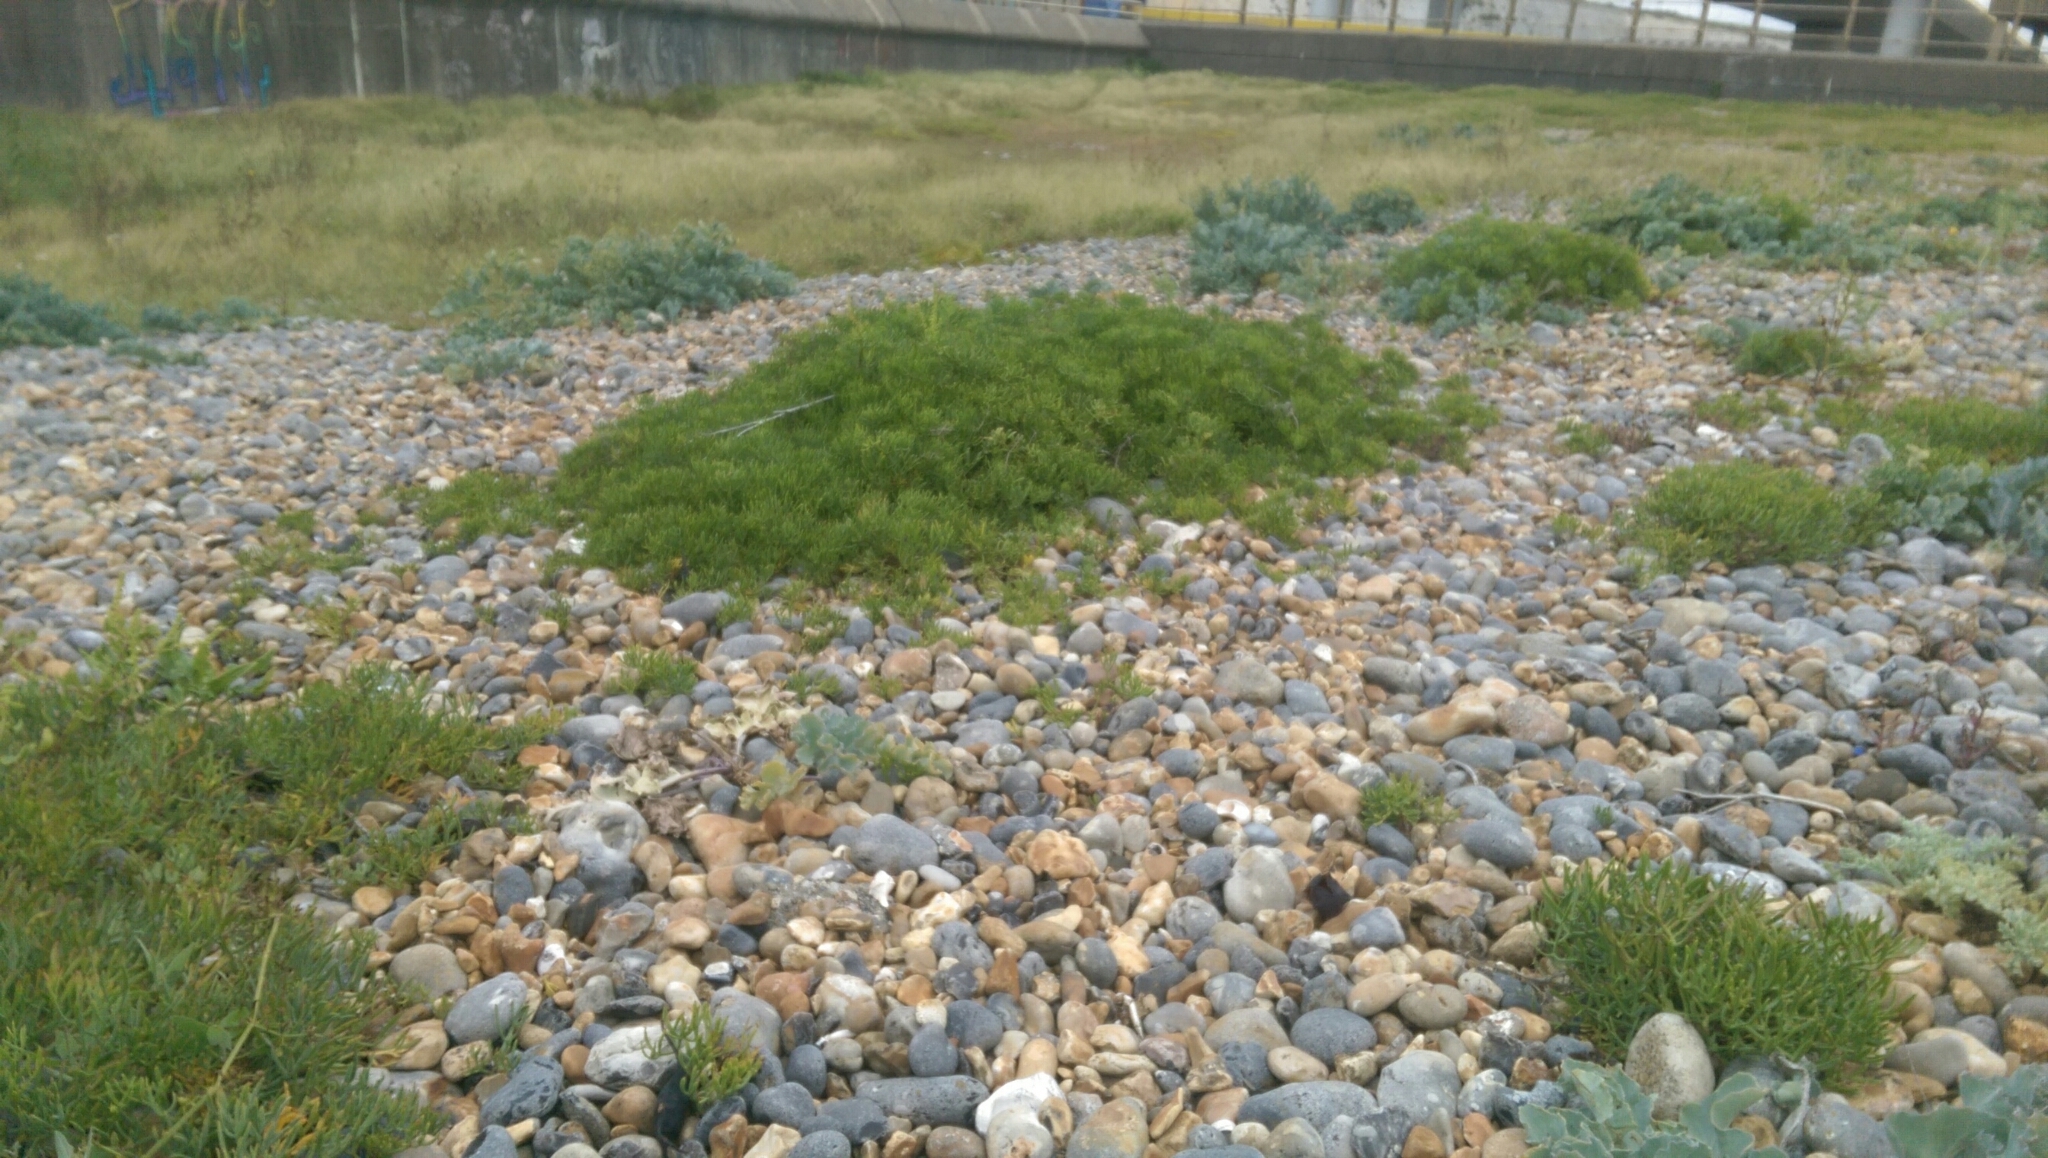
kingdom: Plantae
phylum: Tracheophyta
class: Magnoliopsida
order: Apiales
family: Apiaceae
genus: Crithmum
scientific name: Crithmum maritimum
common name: Rock samphire
